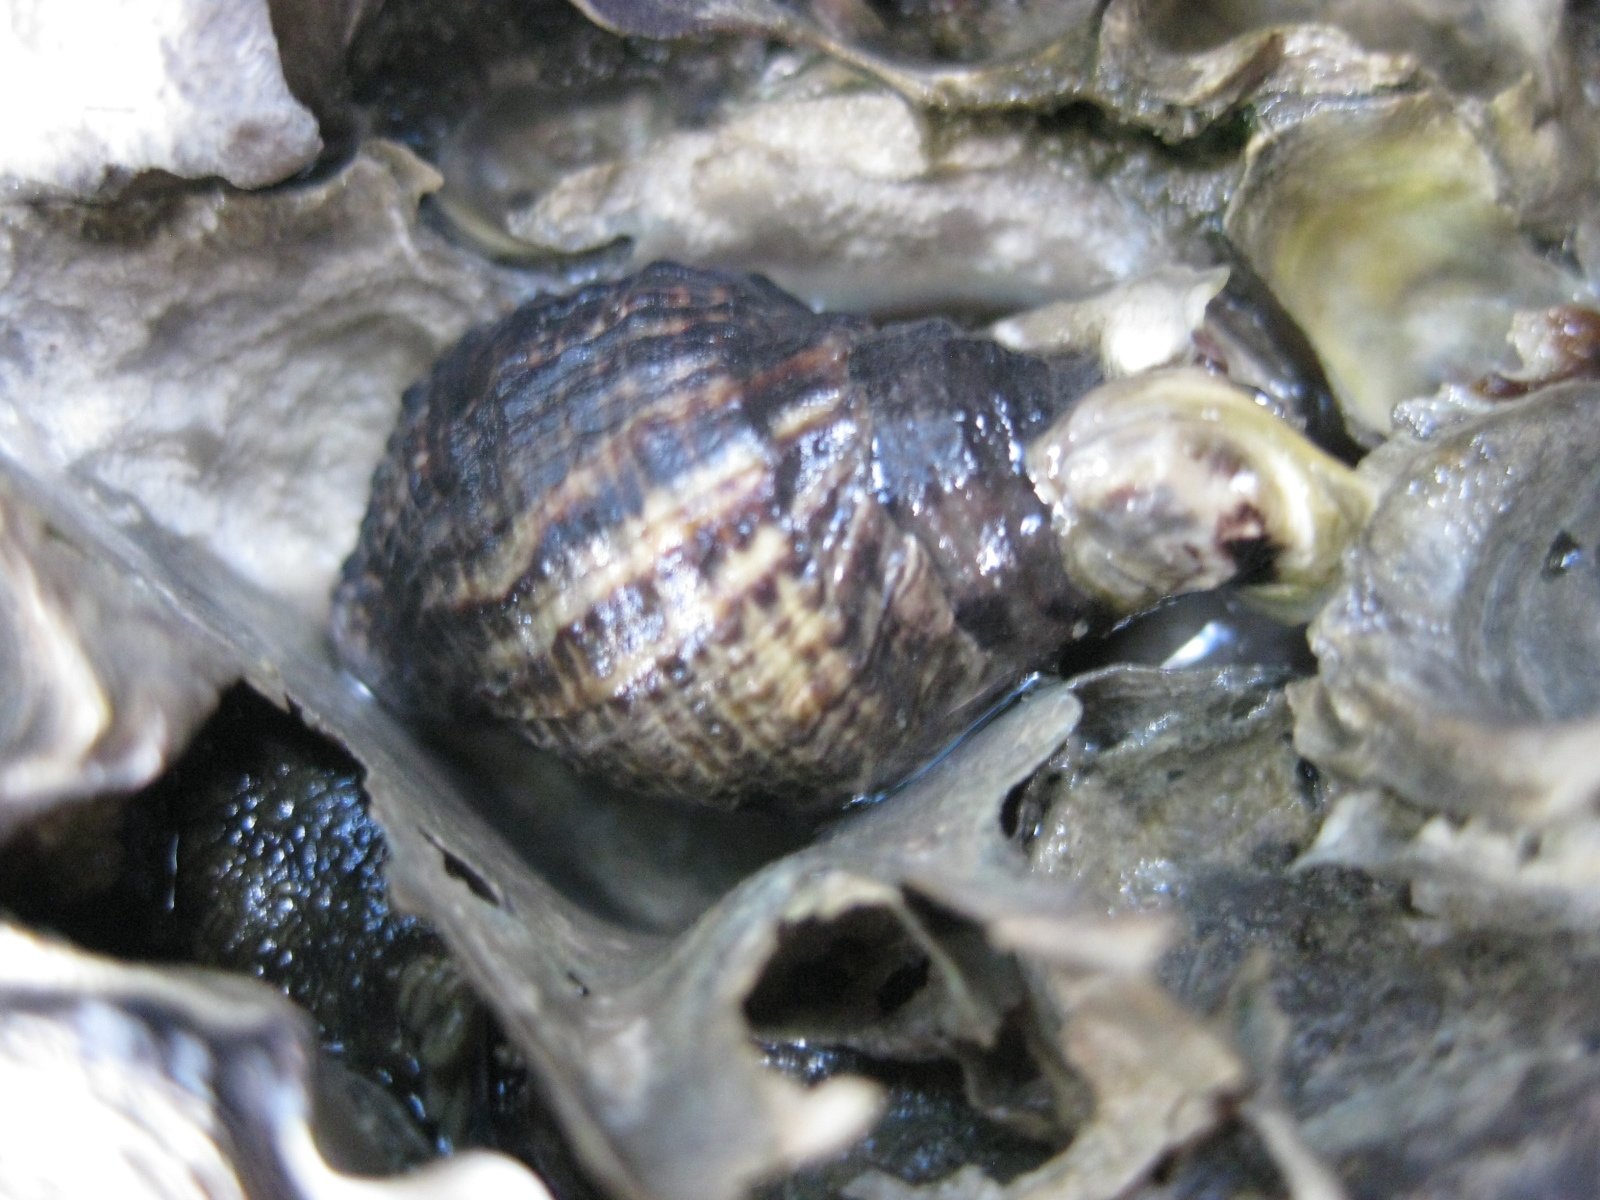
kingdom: Animalia
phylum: Mollusca
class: Gastropoda
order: Neogastropoda
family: Muricidae
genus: Haustrum
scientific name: Haustrum scobina
